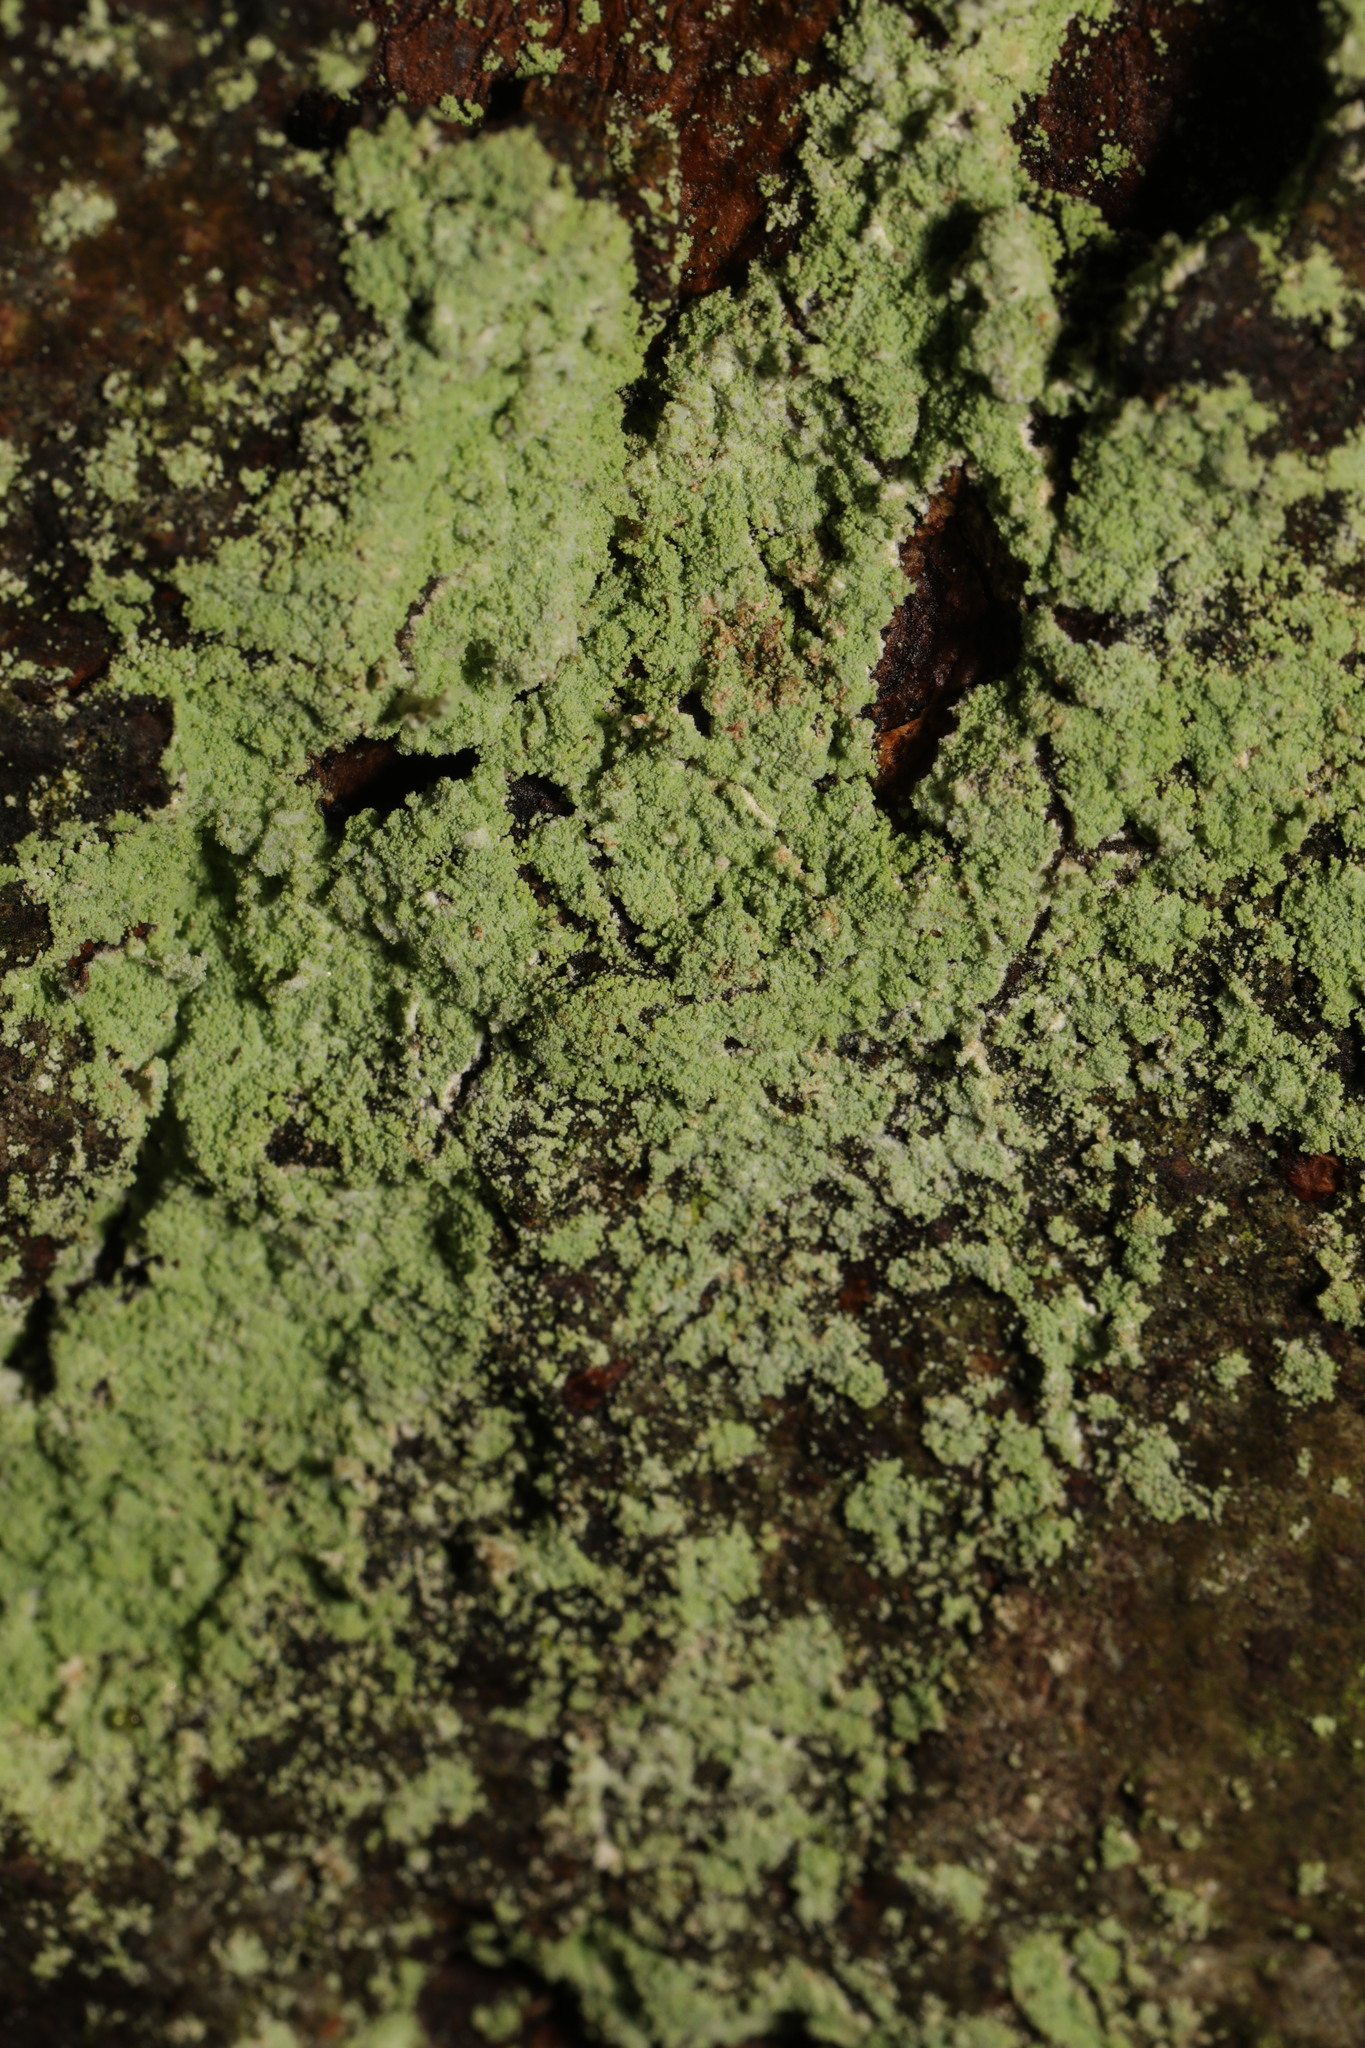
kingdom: Fungi
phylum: Ascomycota
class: Lecanoromycetes
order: Lecanorales
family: Stereocaulaceae
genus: Lepraria
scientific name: Lepraria
